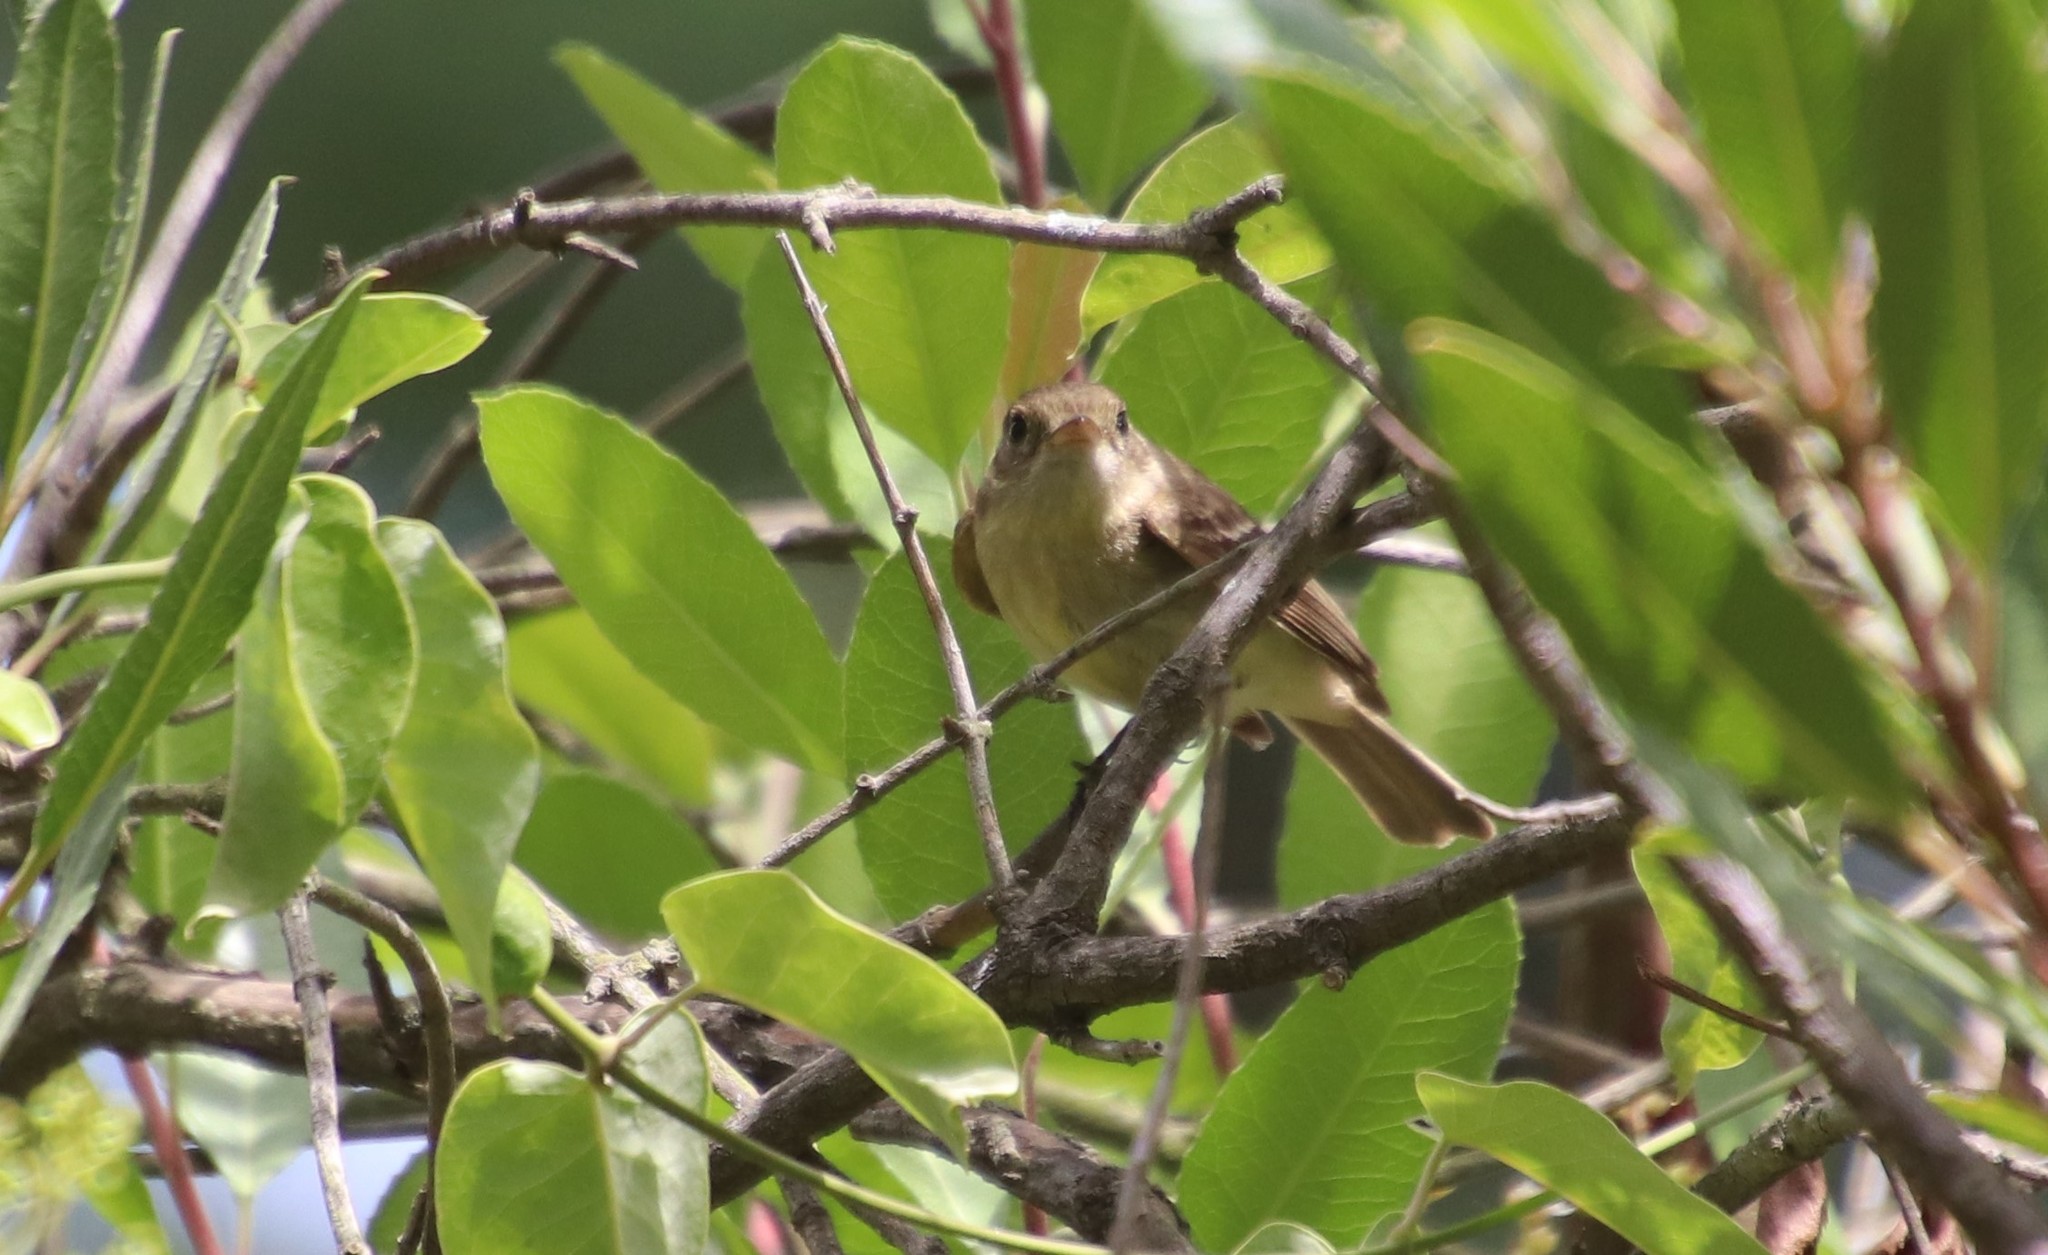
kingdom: Animalia
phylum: Chordata
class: Aves
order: Passeriformes
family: Tyrannidae
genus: Empidonax
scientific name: Empidonax difficilis
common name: Pacific-slope flycatcher
